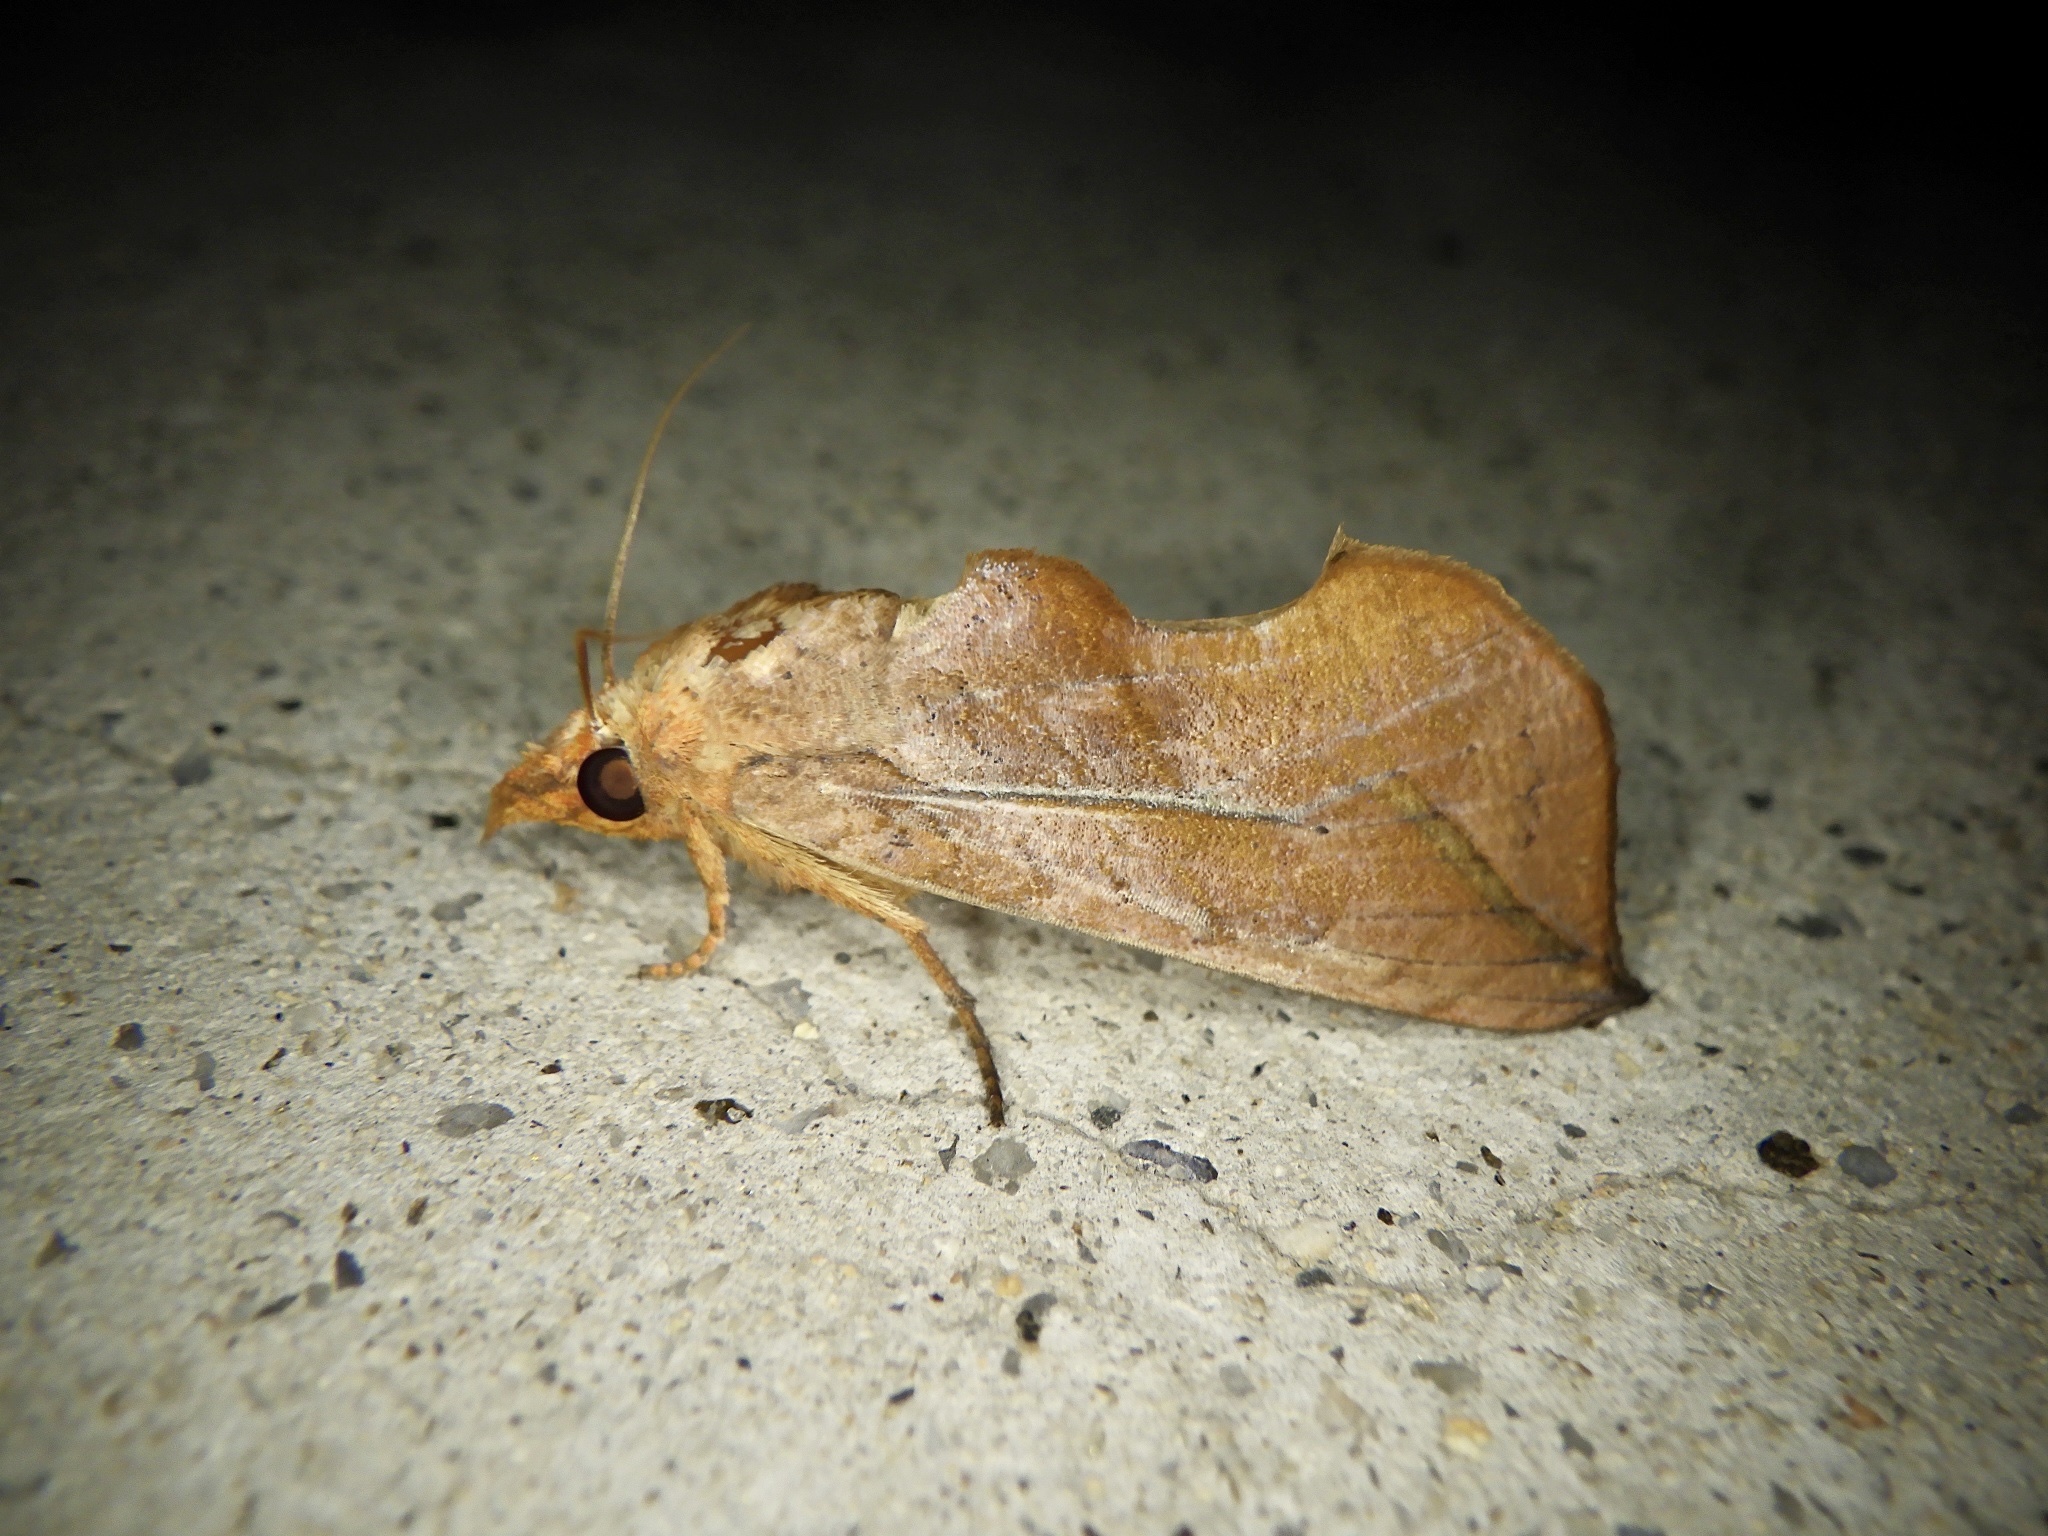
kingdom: Animalia
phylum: Arthropoda
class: Insecta
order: Lepidoptera
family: Erebidae
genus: Oraesia
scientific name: Oraesia excavata
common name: Moth
